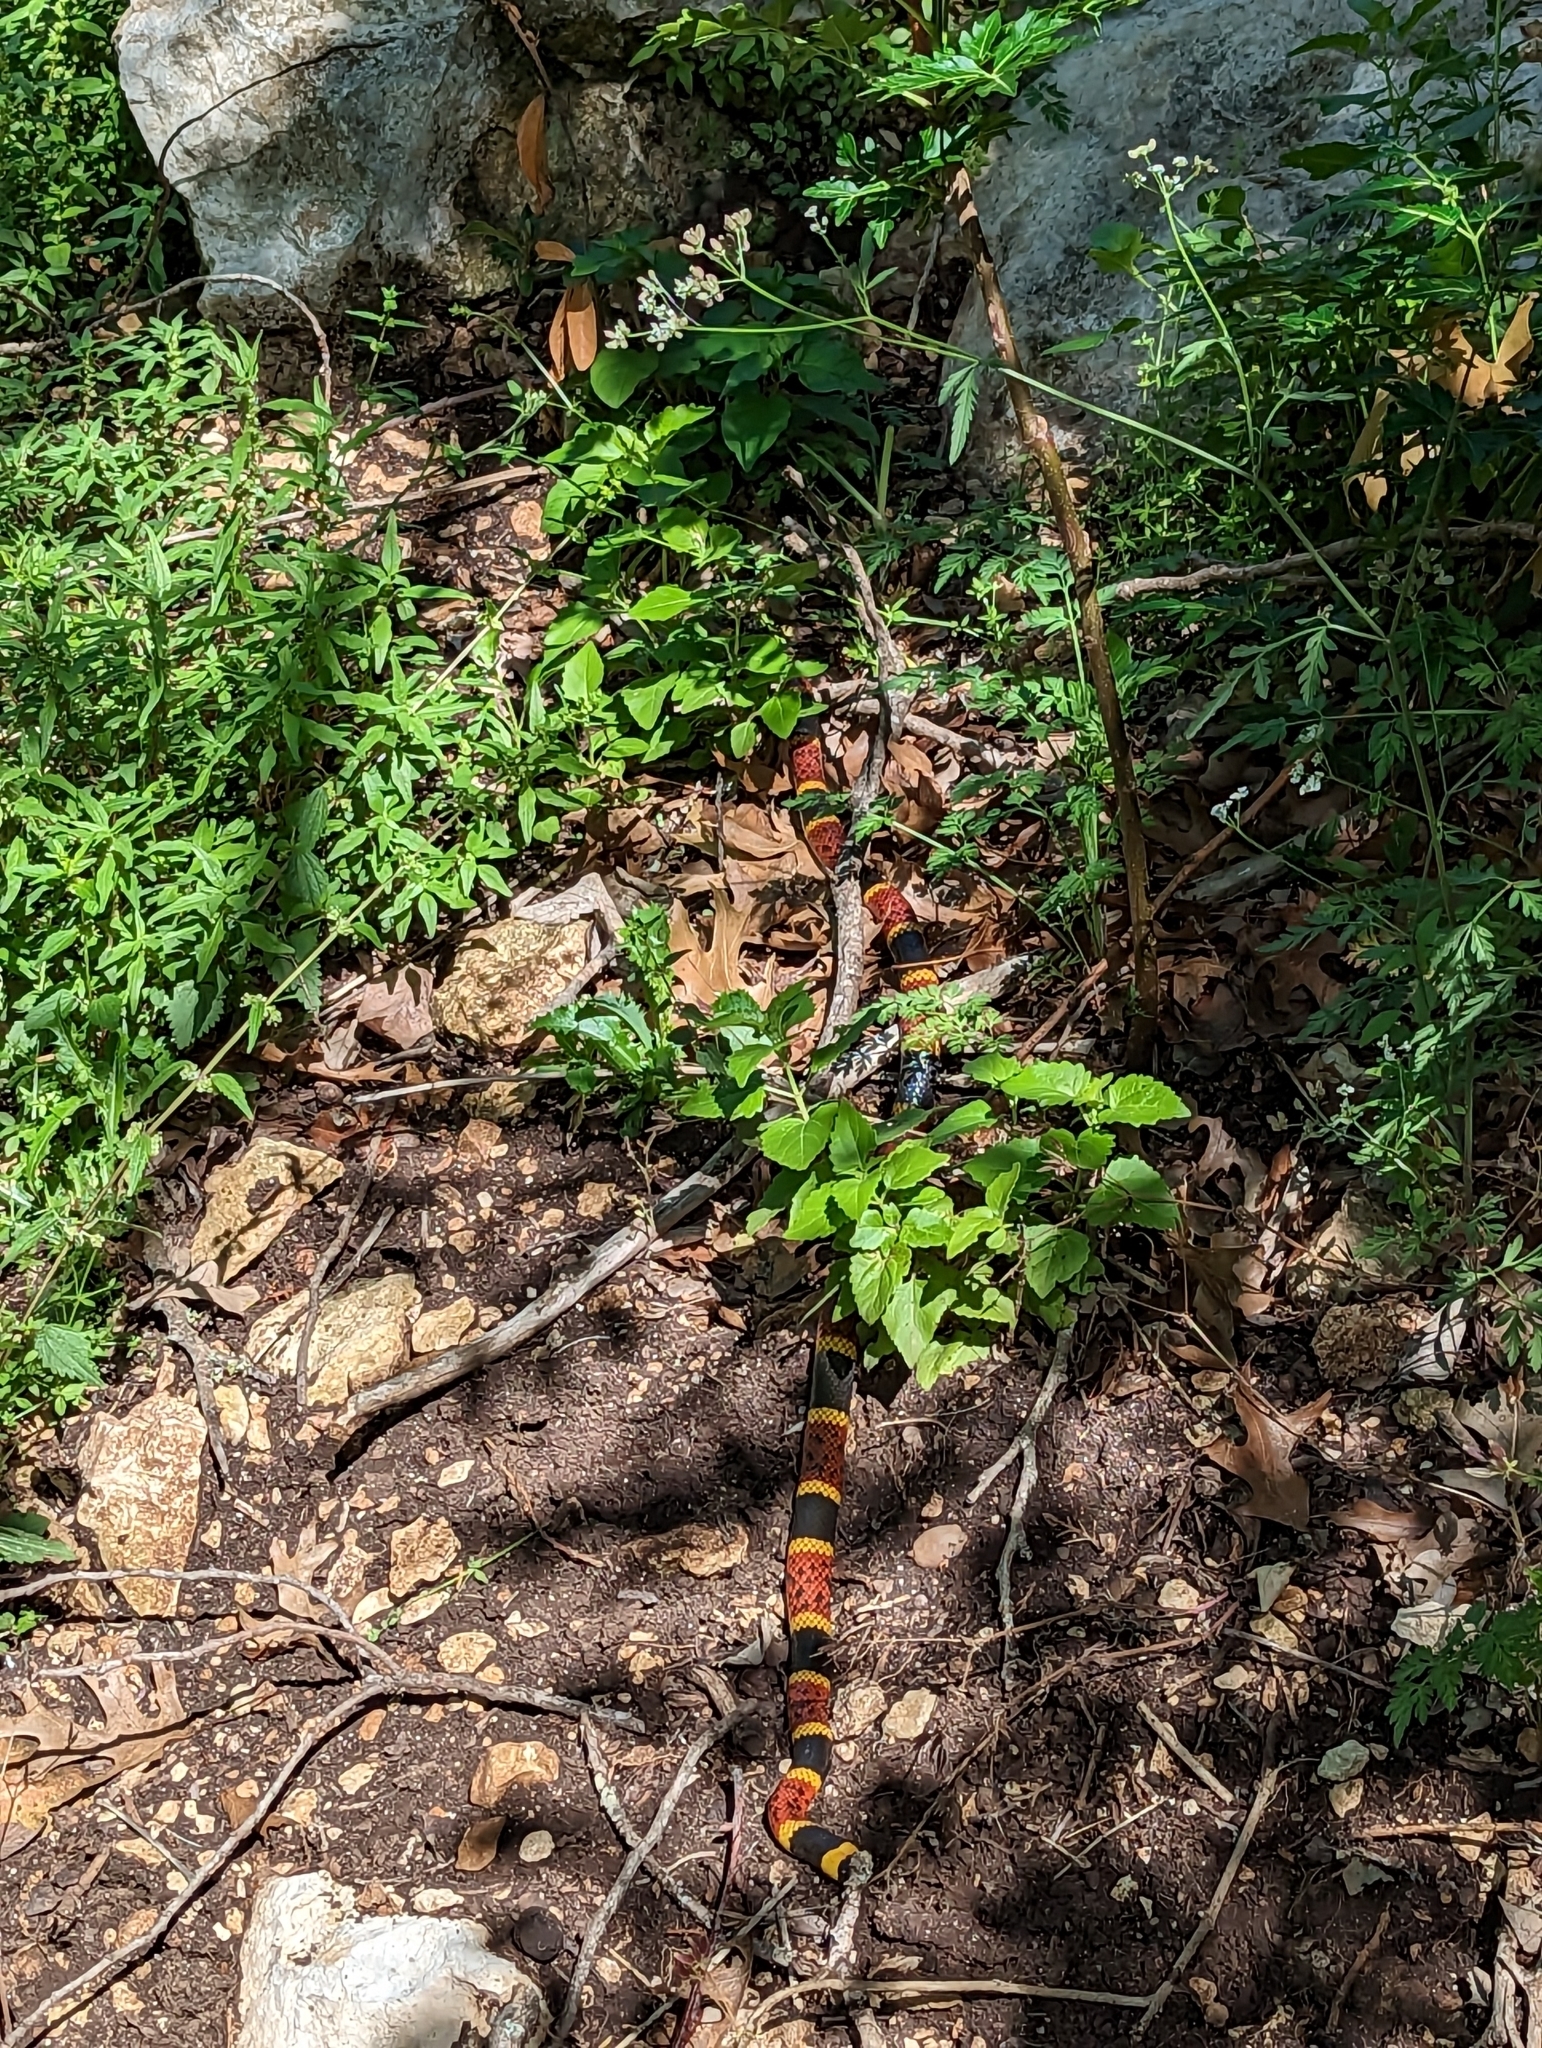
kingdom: Animalia
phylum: Chordata
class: Squamata
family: Elapidae
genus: Micrurus
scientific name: Micrurus tener
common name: Texas coral snake
